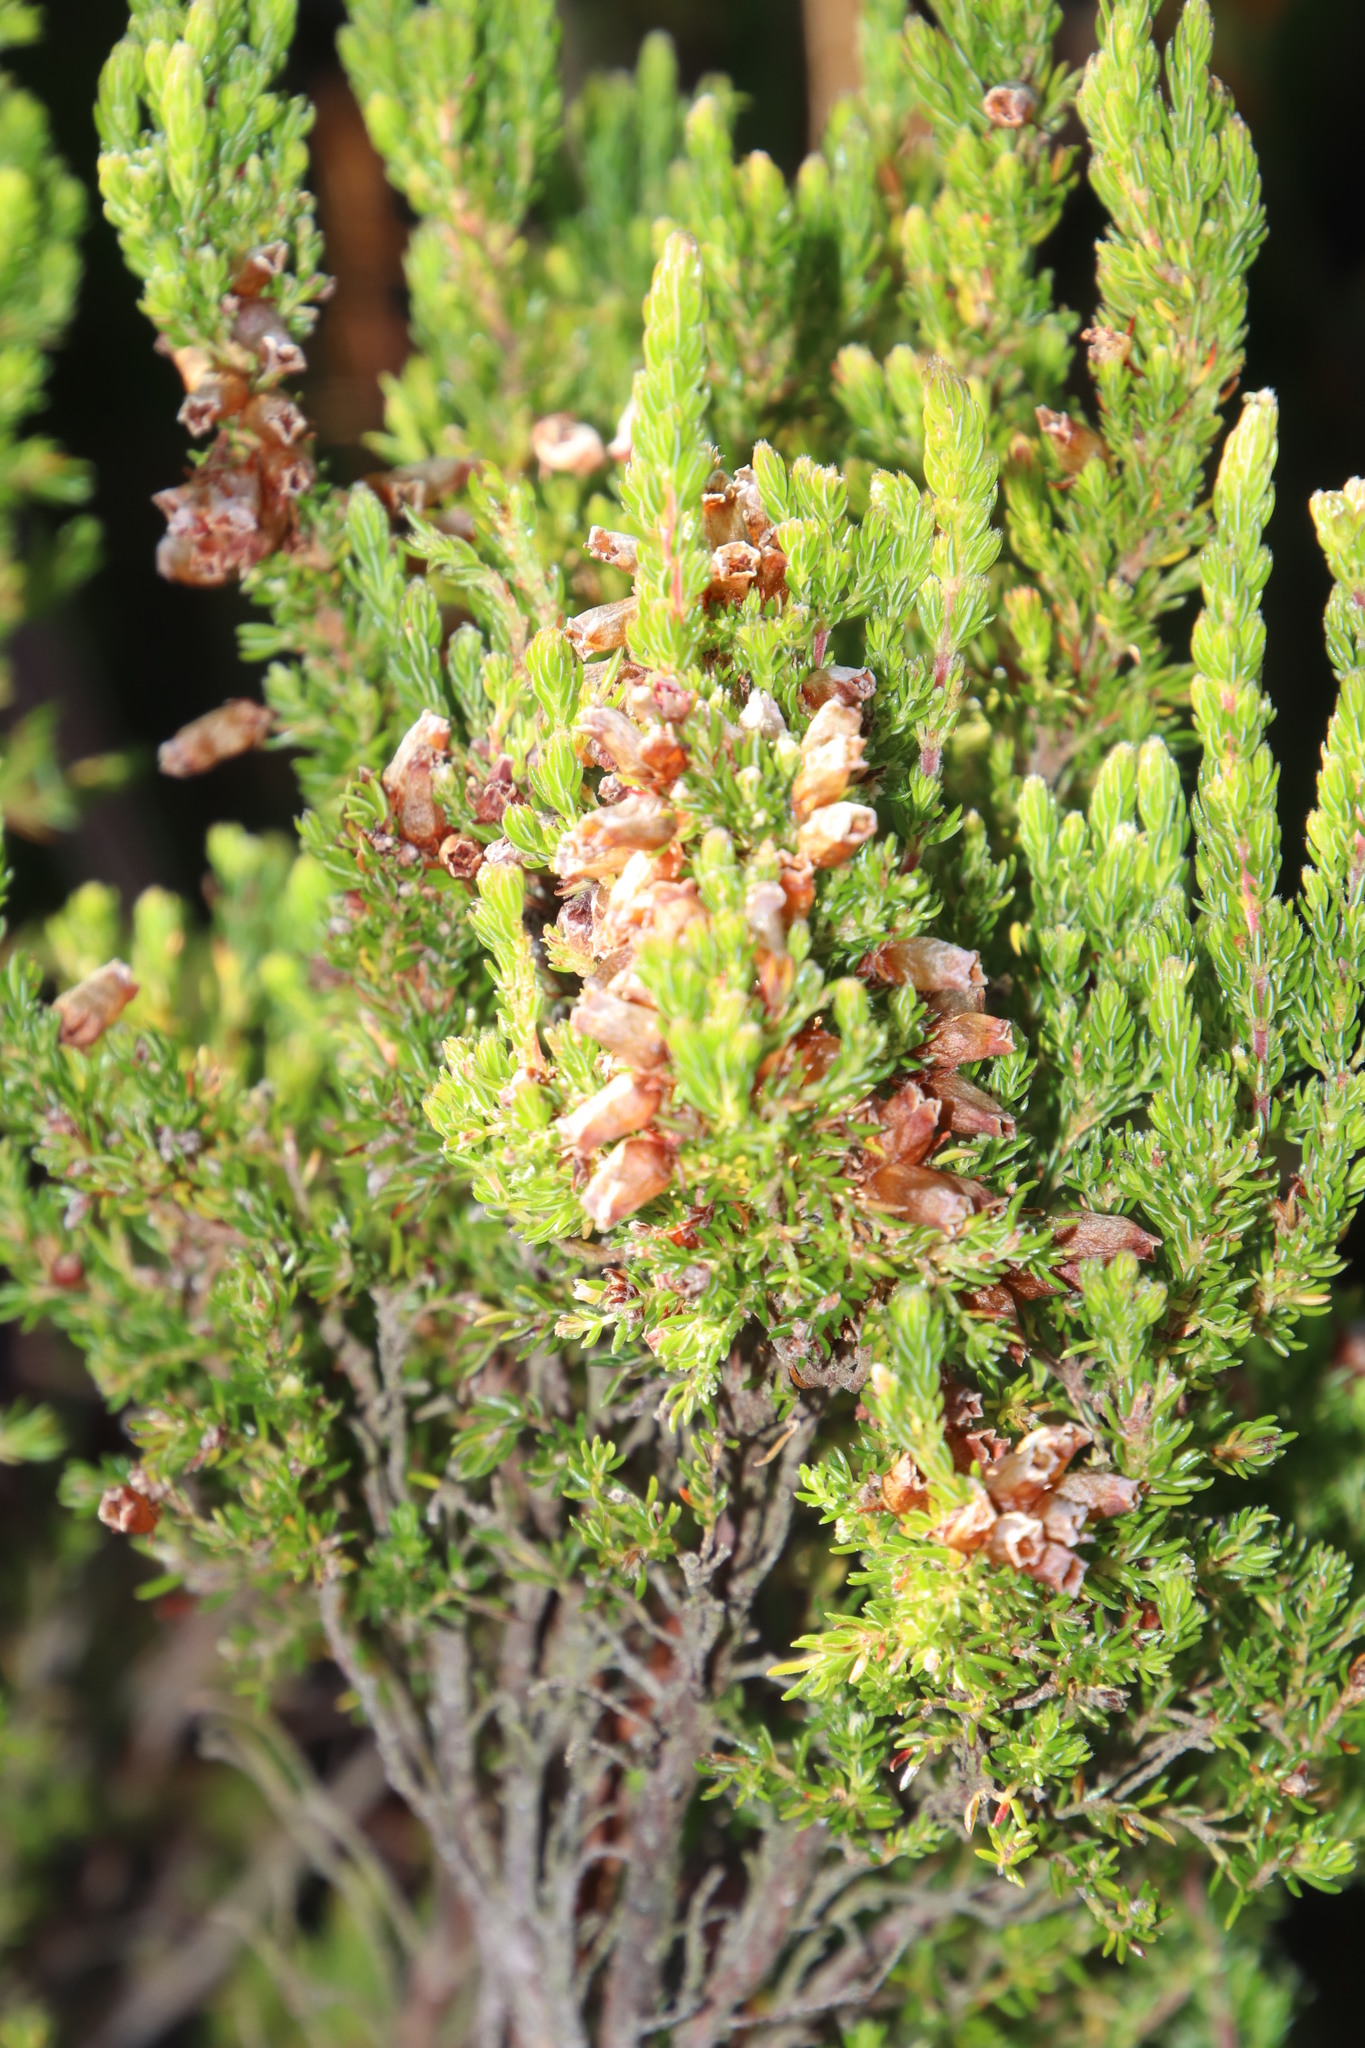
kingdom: Plantae
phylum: Tracheophyta
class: Magnoliopsida
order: Ericales
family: Ericaceae
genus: Erica
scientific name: Erica sitiens
